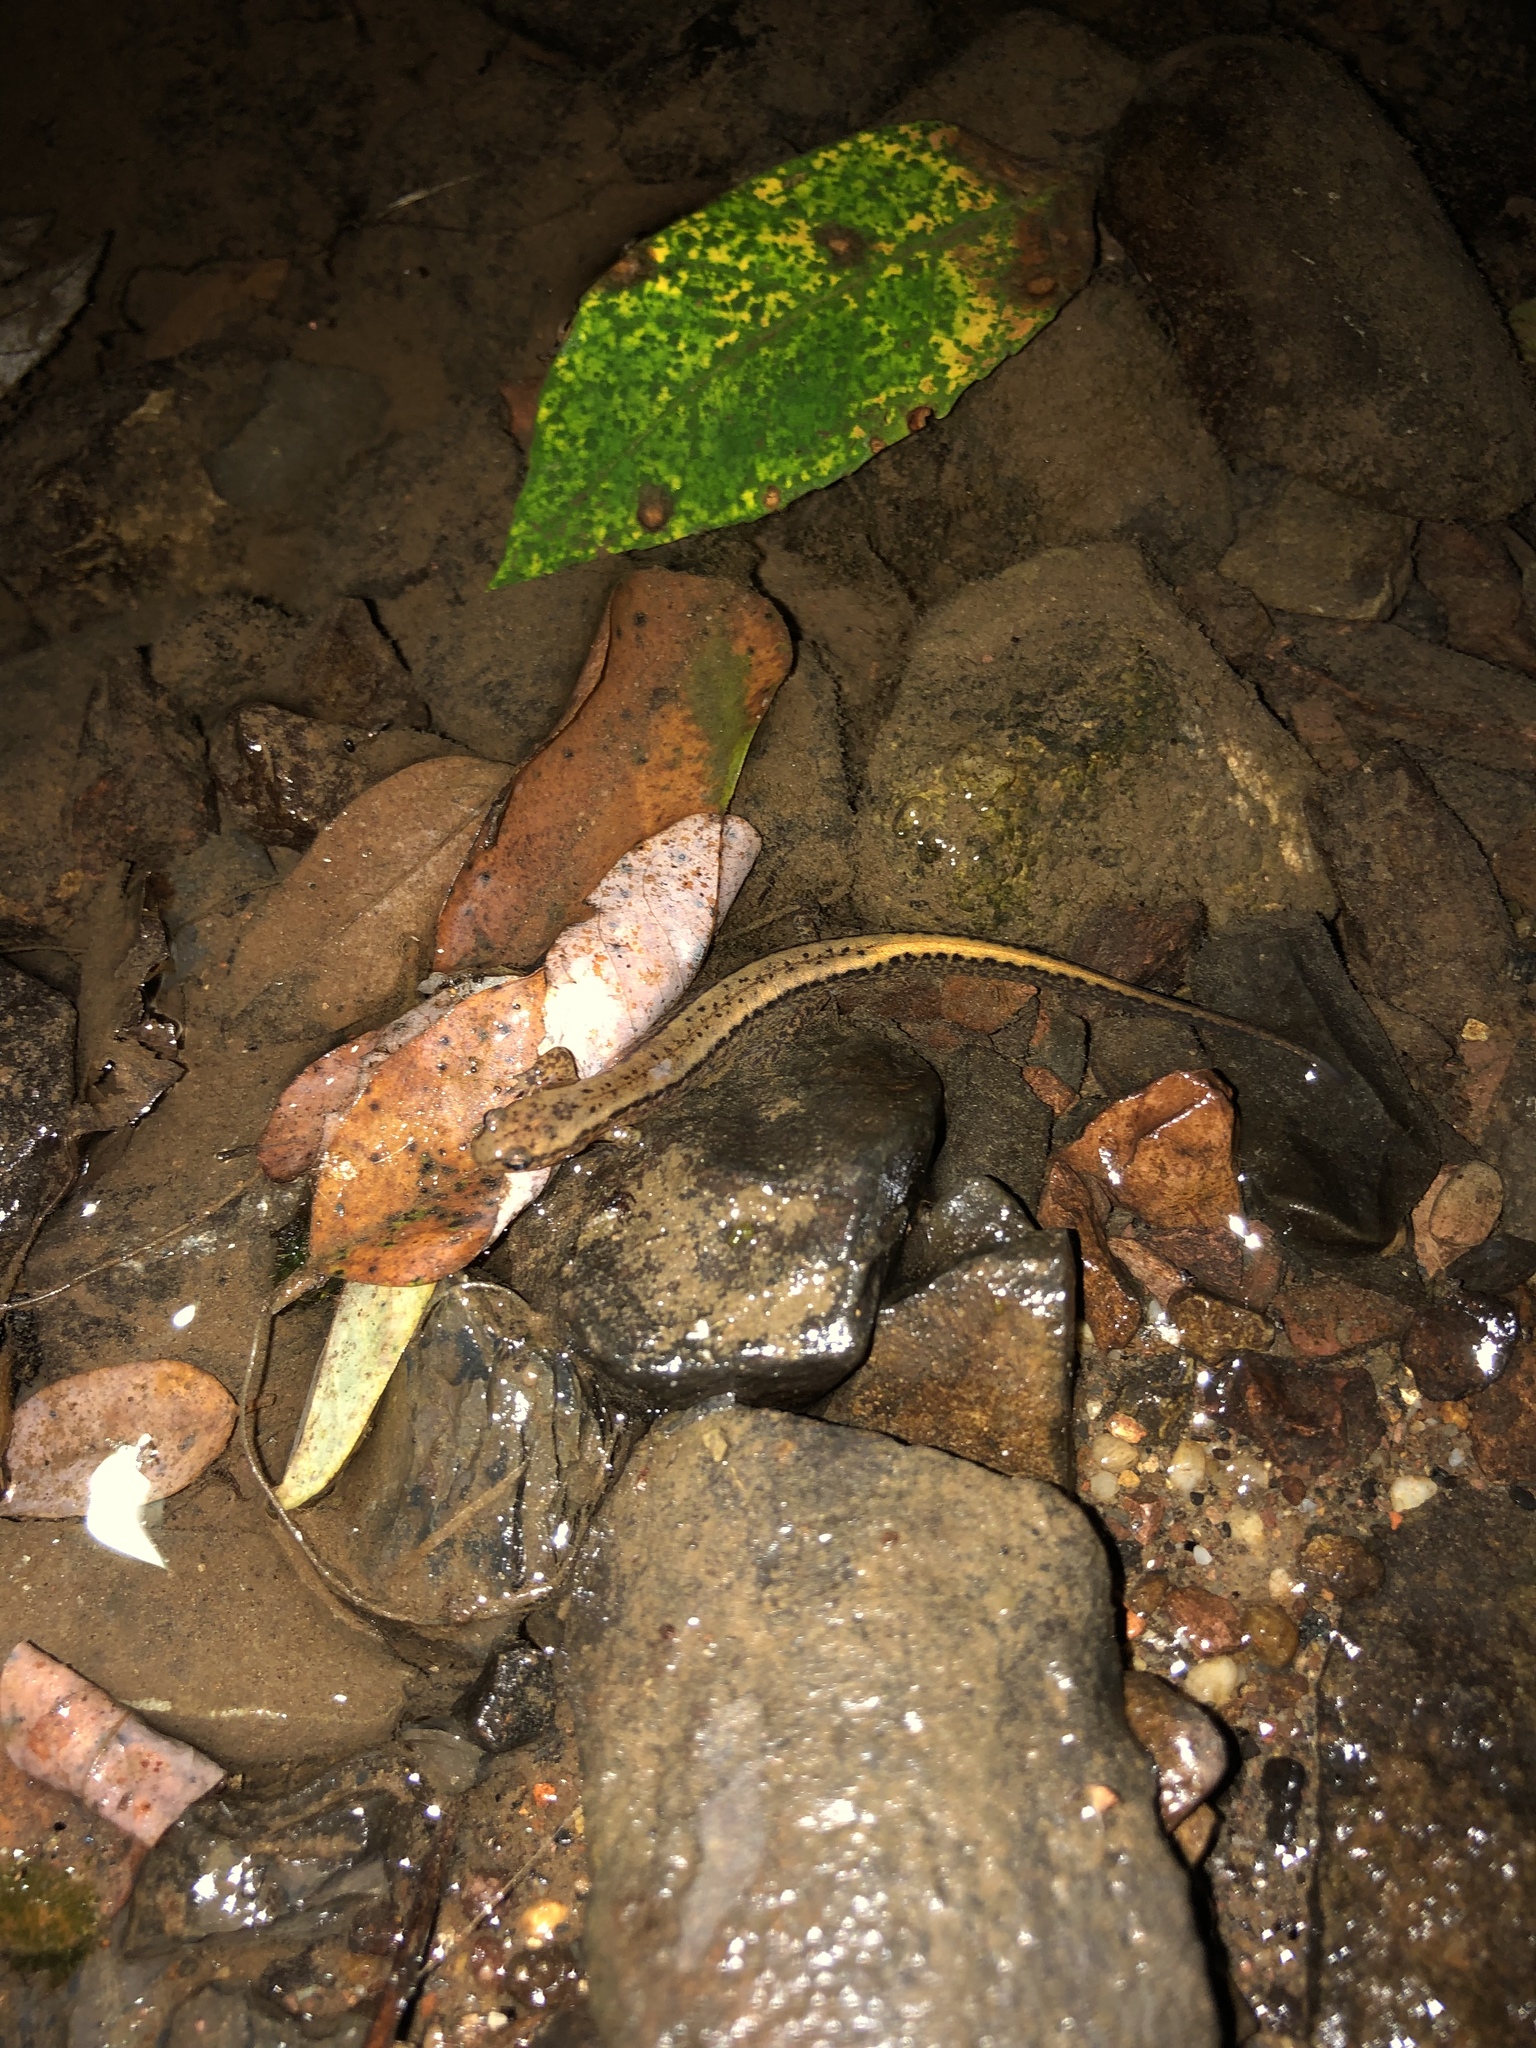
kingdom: Animalia
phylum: Chordata
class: Amphibia
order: Caudata
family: Plethodontidae
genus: Eurycea
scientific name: Eurycea bislineata
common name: Northern two-lined salamander
